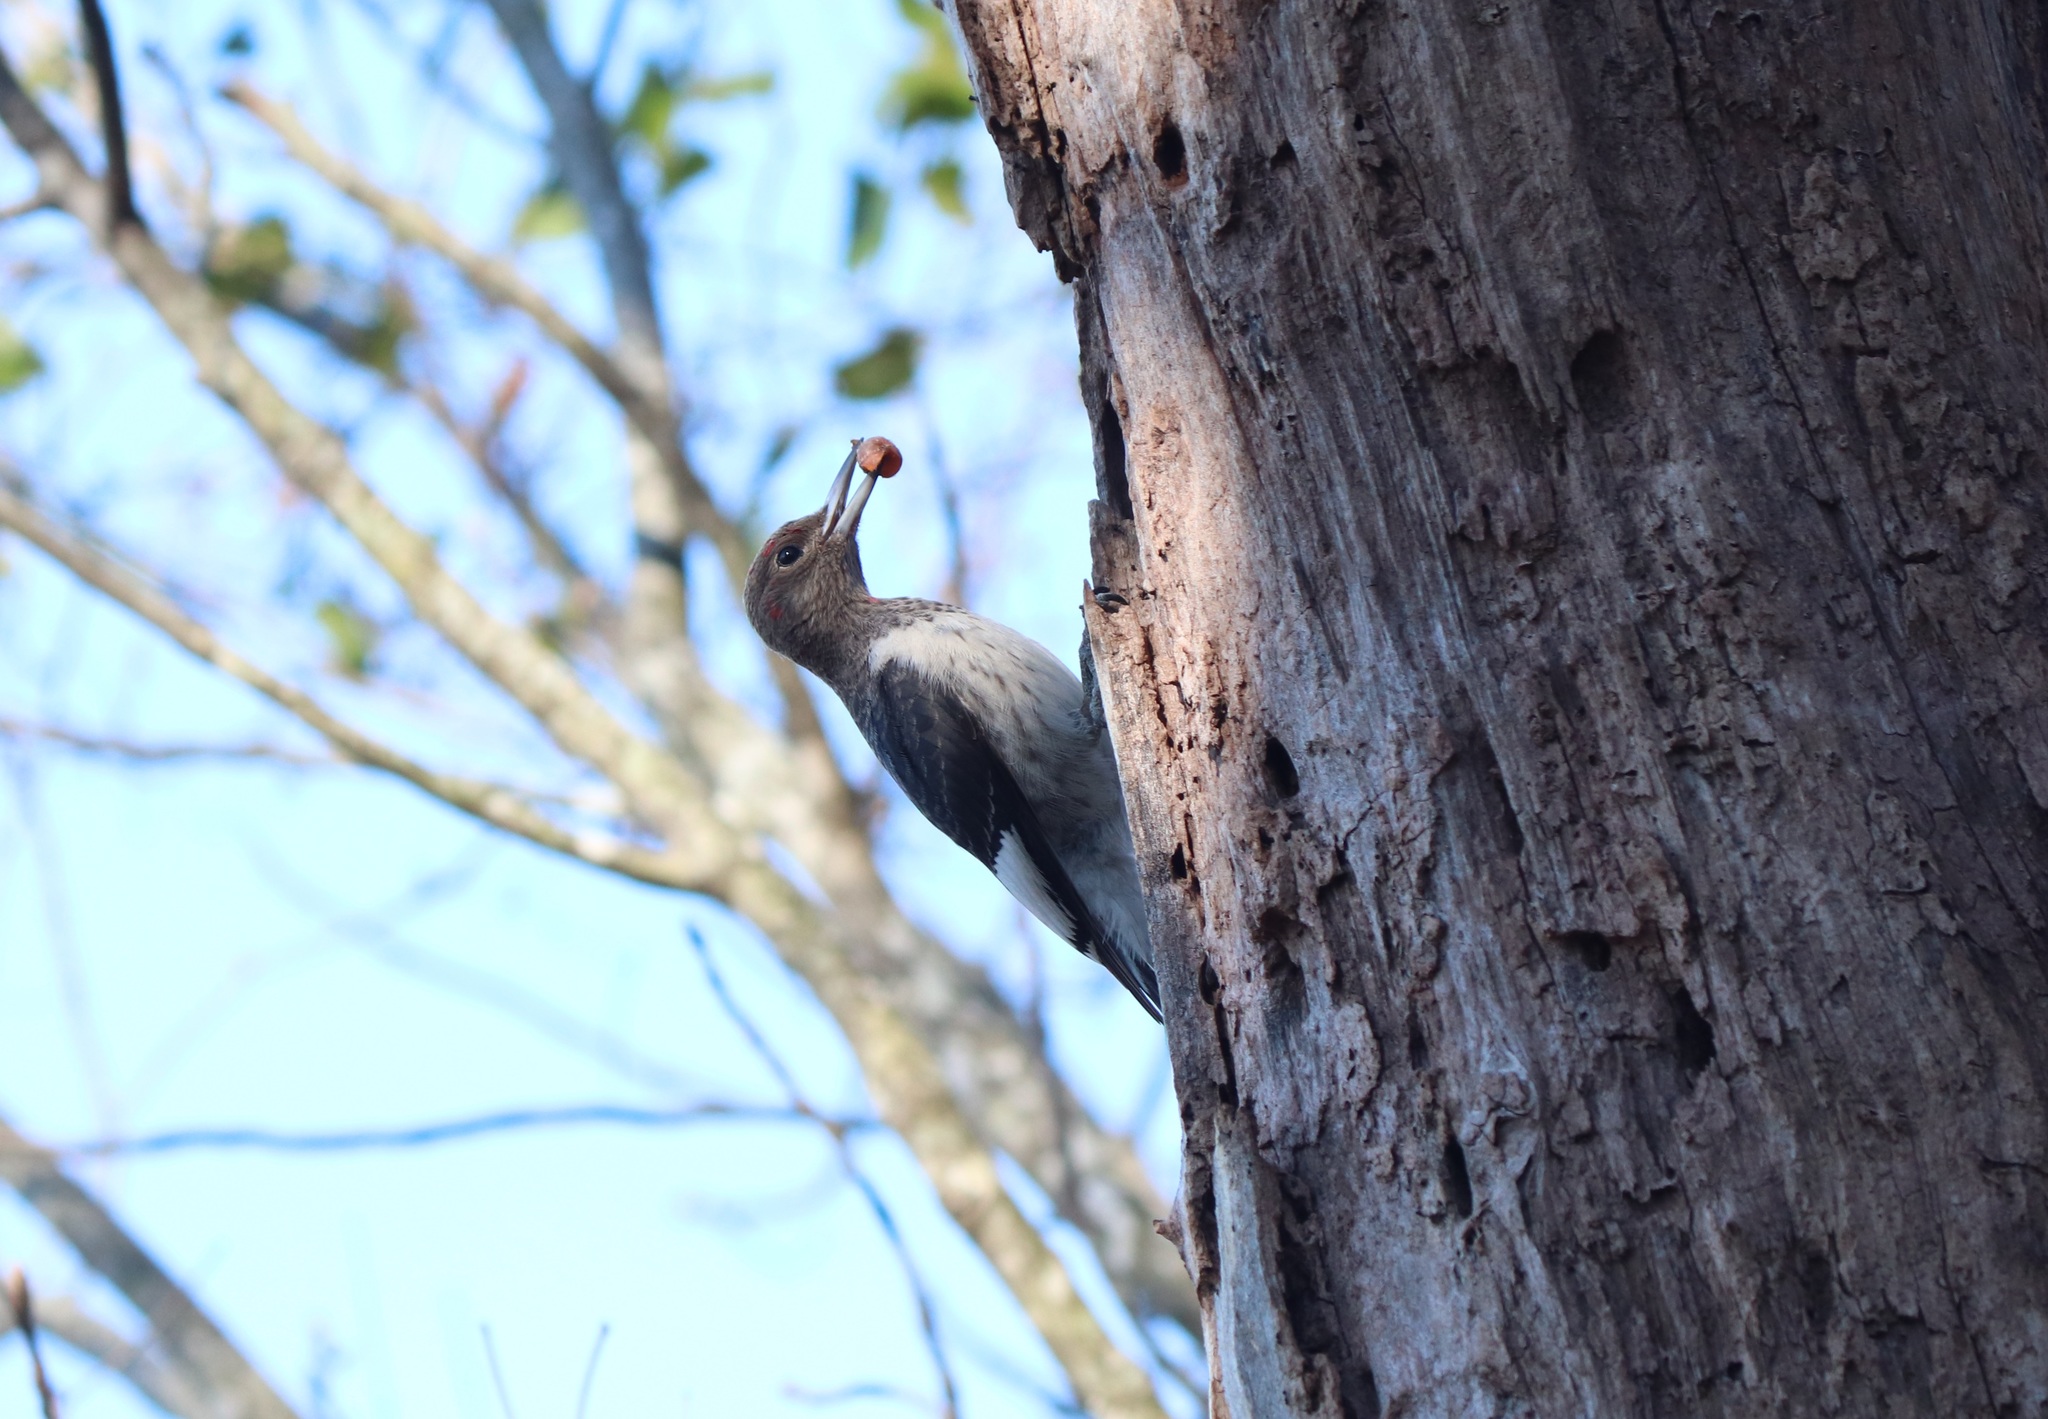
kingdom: Animalia
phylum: Chordata
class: Aves
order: Piciformes
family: Picidae
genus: Melanerpes
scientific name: Melanerpes erythrocephalus
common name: Red-headed woodpecker
